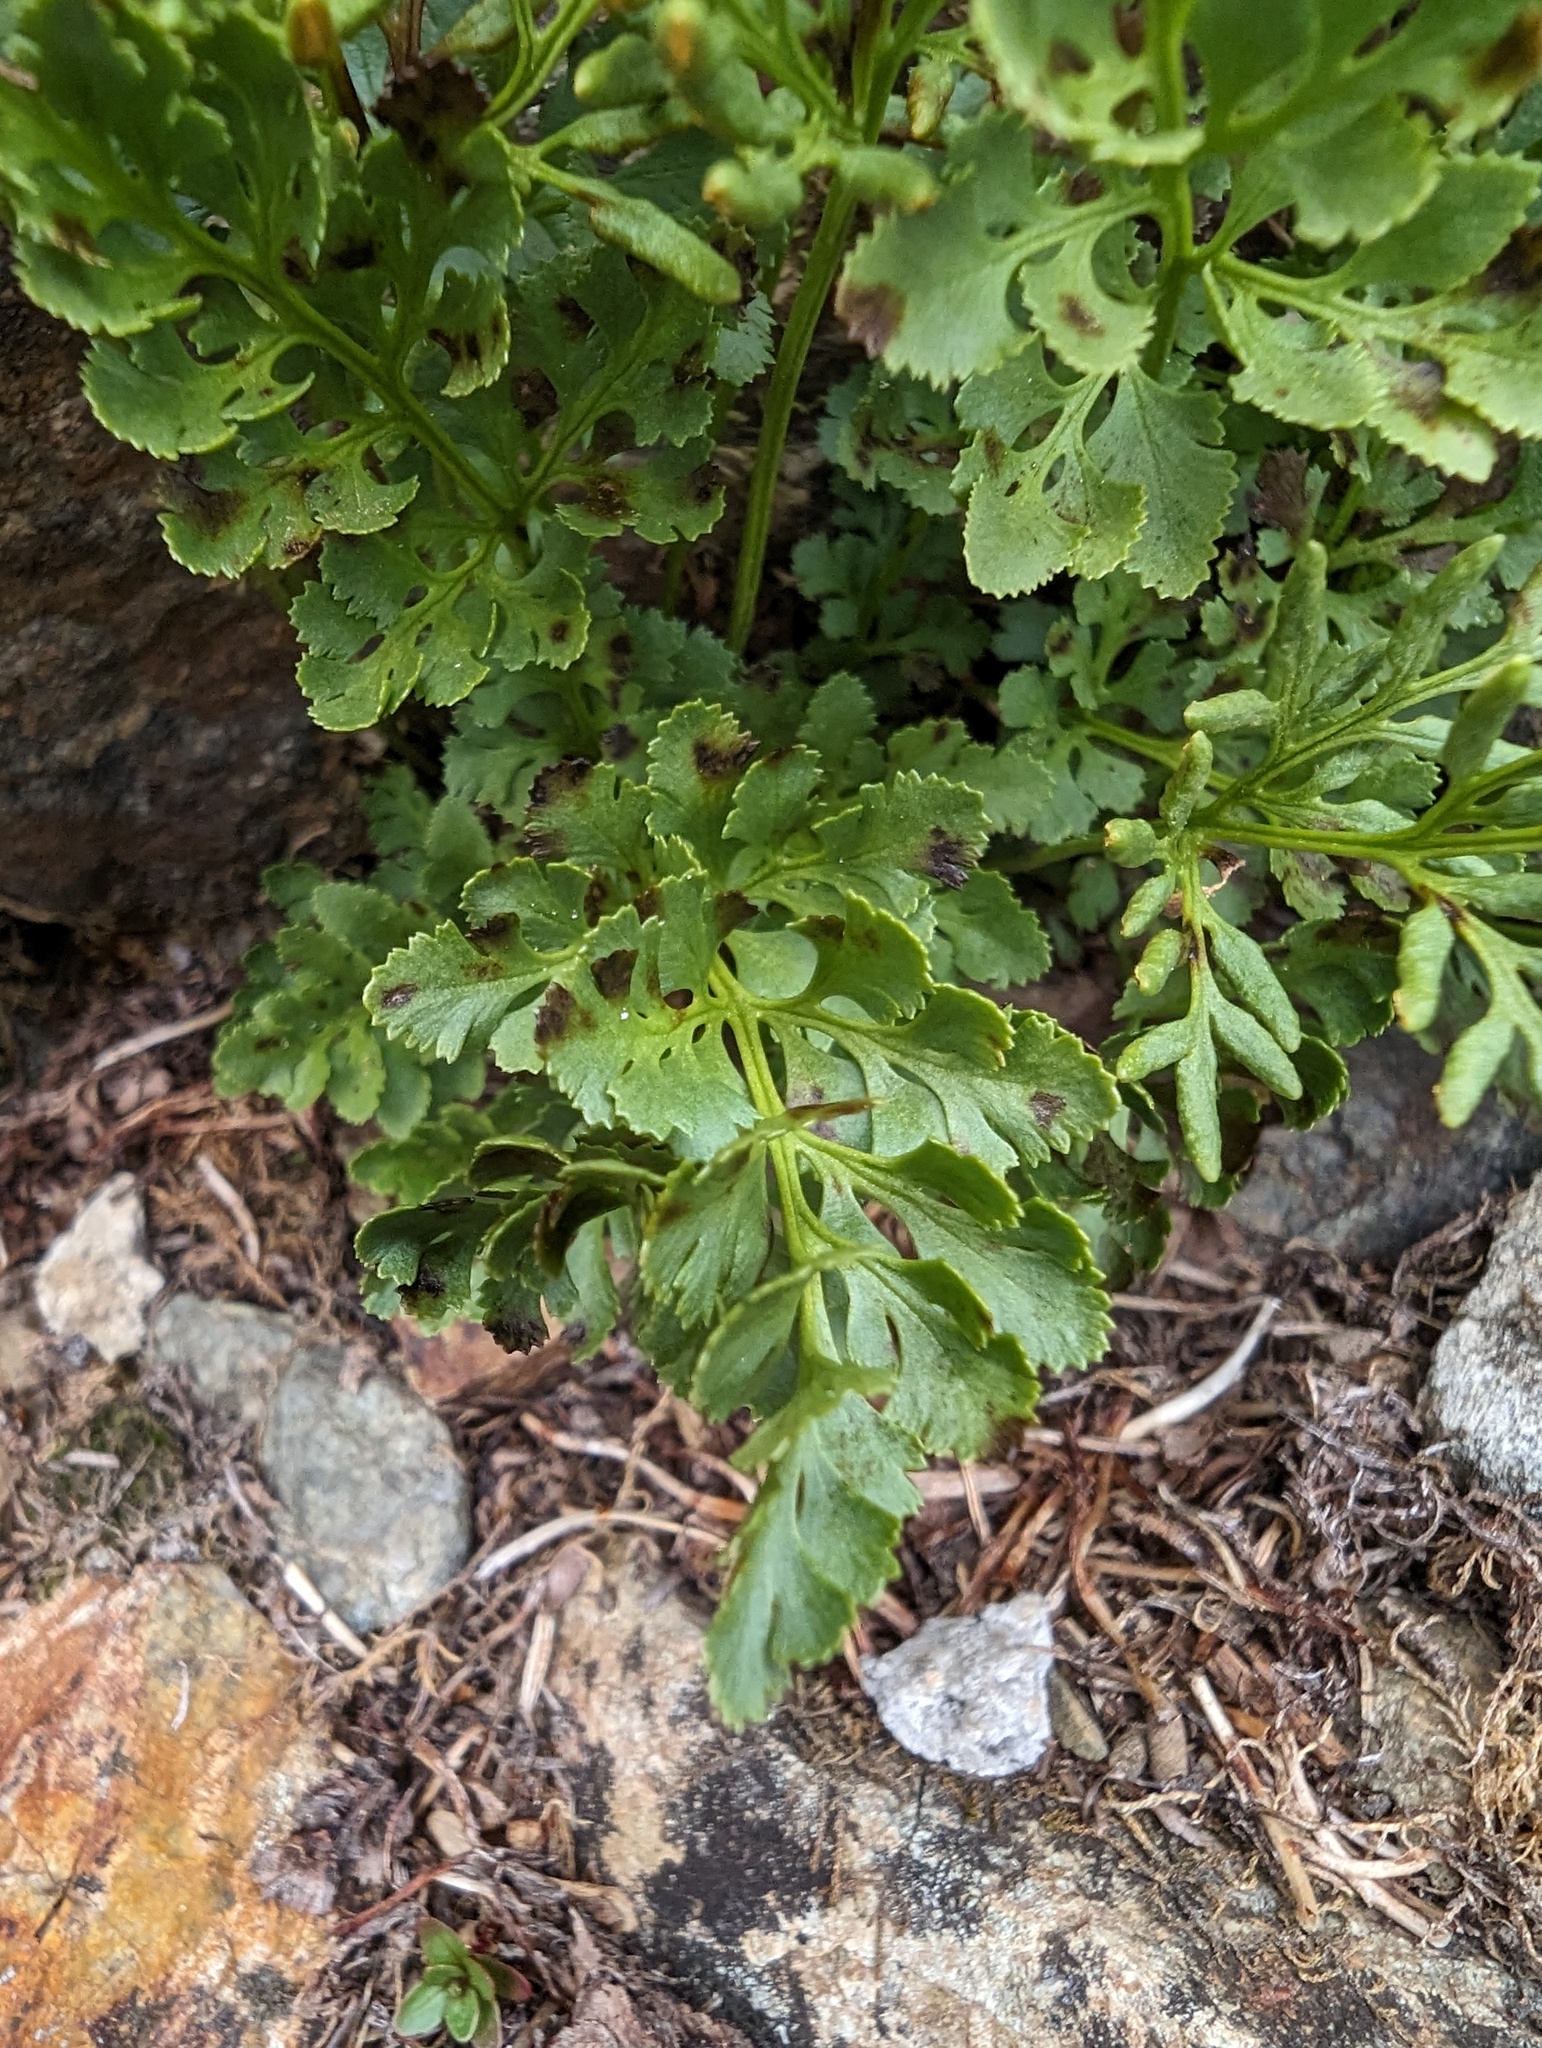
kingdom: Plantae
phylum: Tracheophyta
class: Polypodiopsida
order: Polypodiales
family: Pteridaceae
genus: Cryptogramma
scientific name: Cryptogramma cascadensis
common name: Cascade parsley fern
